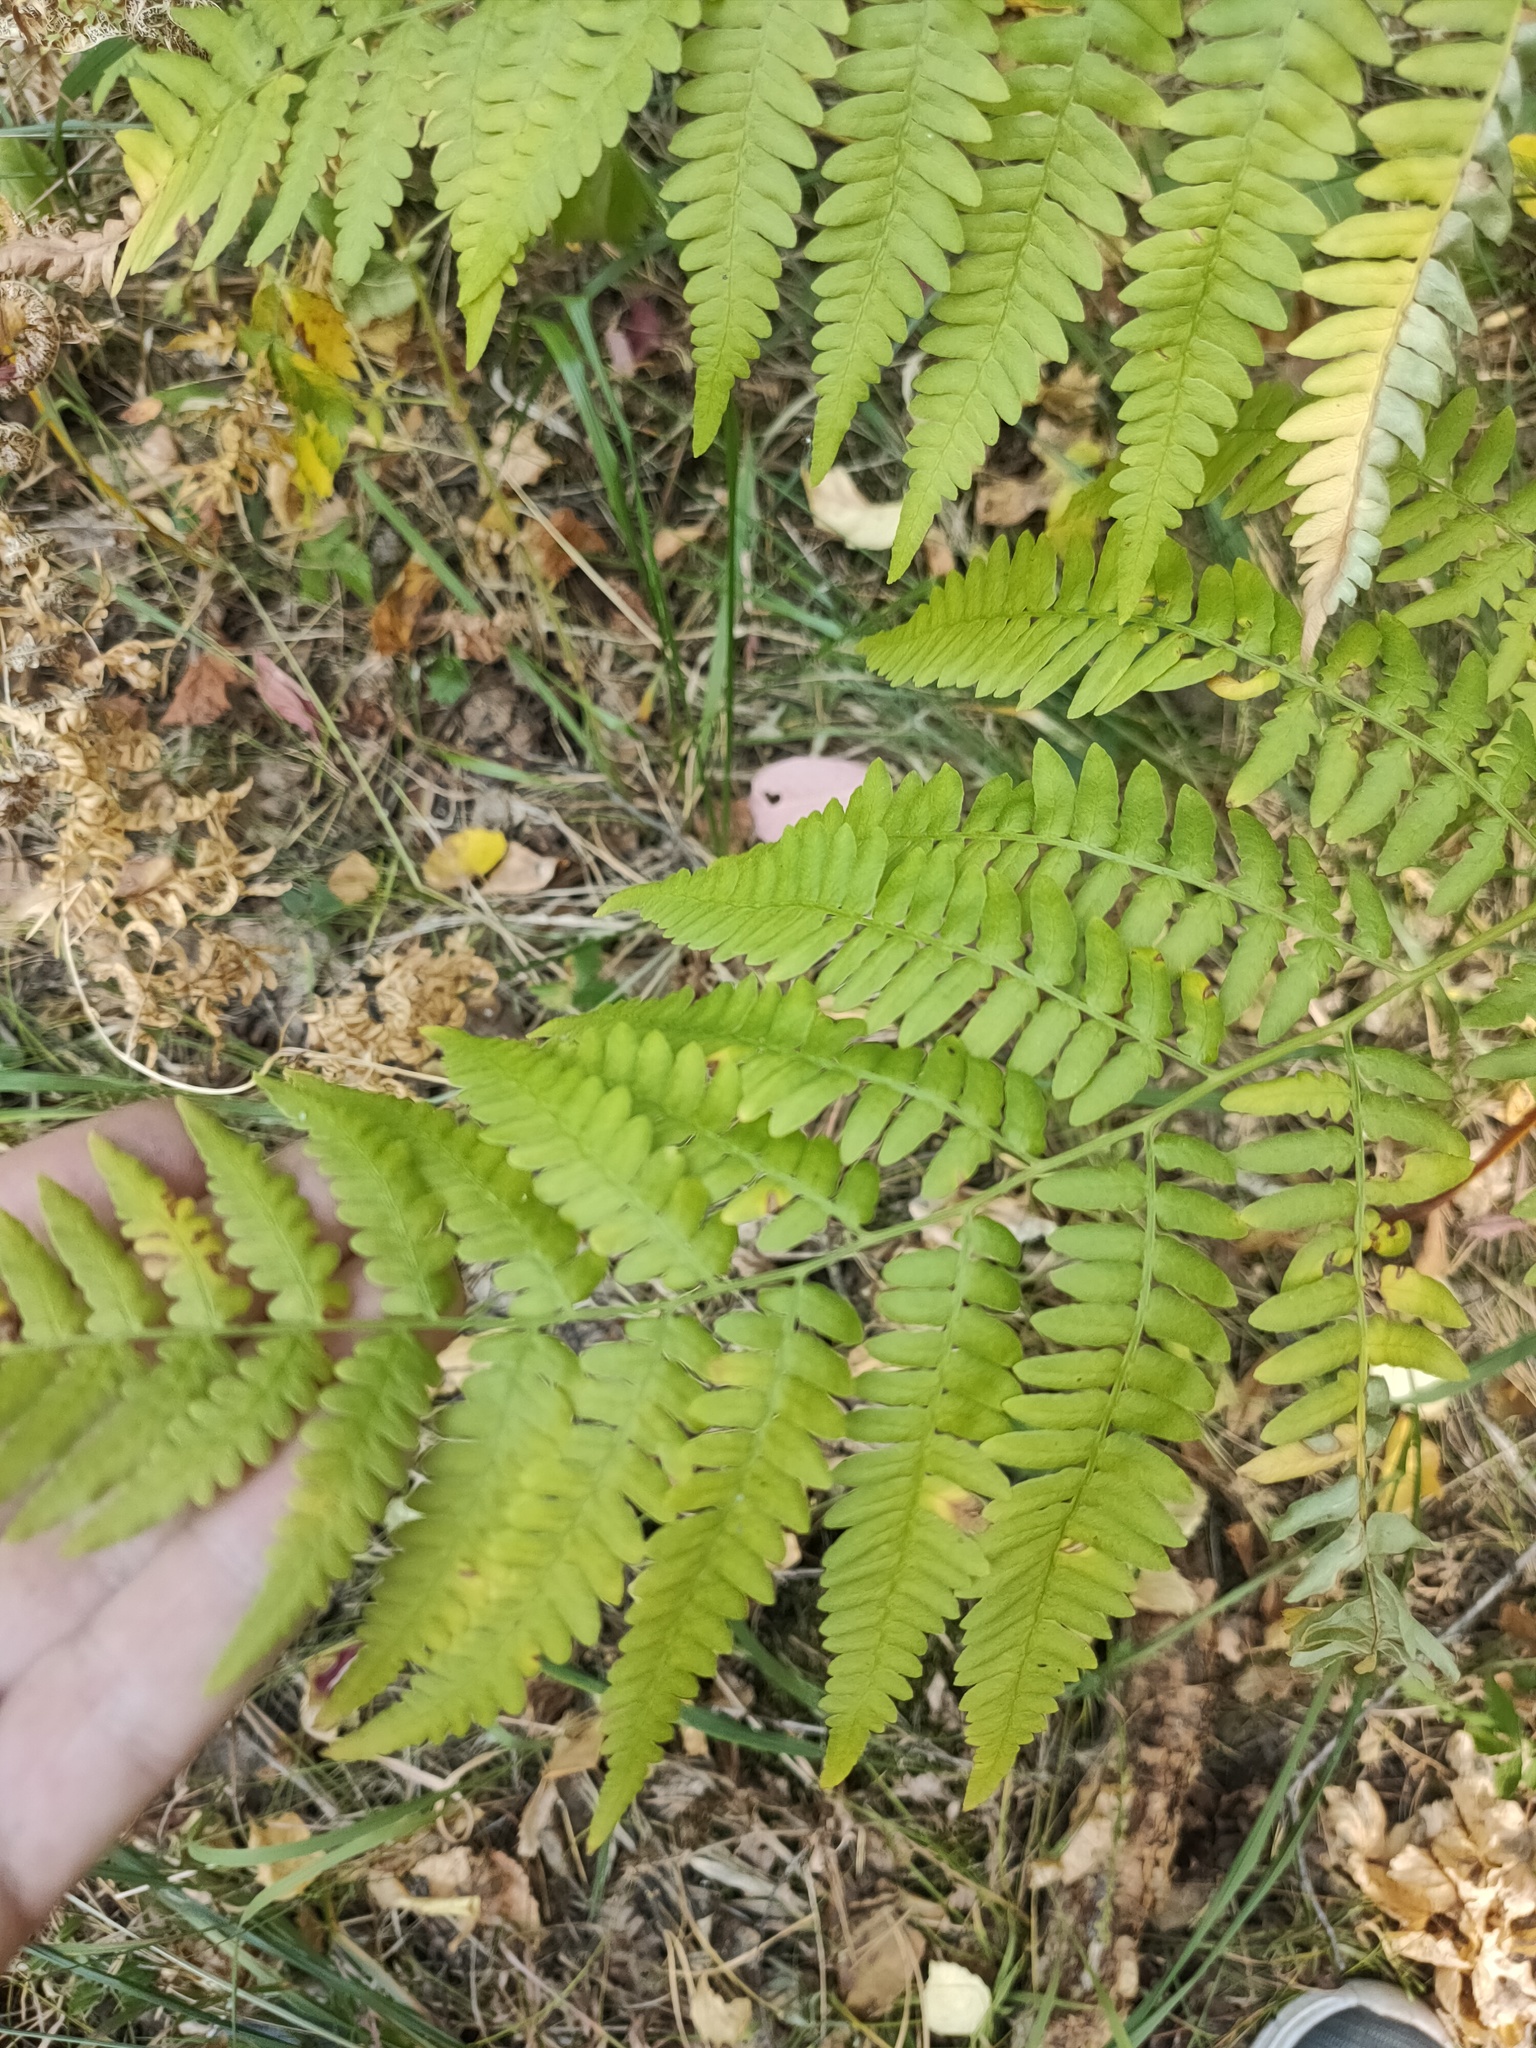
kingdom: Plantae
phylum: Tracheophyta
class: Polypodiopsida
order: Polypodiales
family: Dennstaedtiaceae
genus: Pteridium
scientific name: Pteridium aquilinum
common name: Bracken
